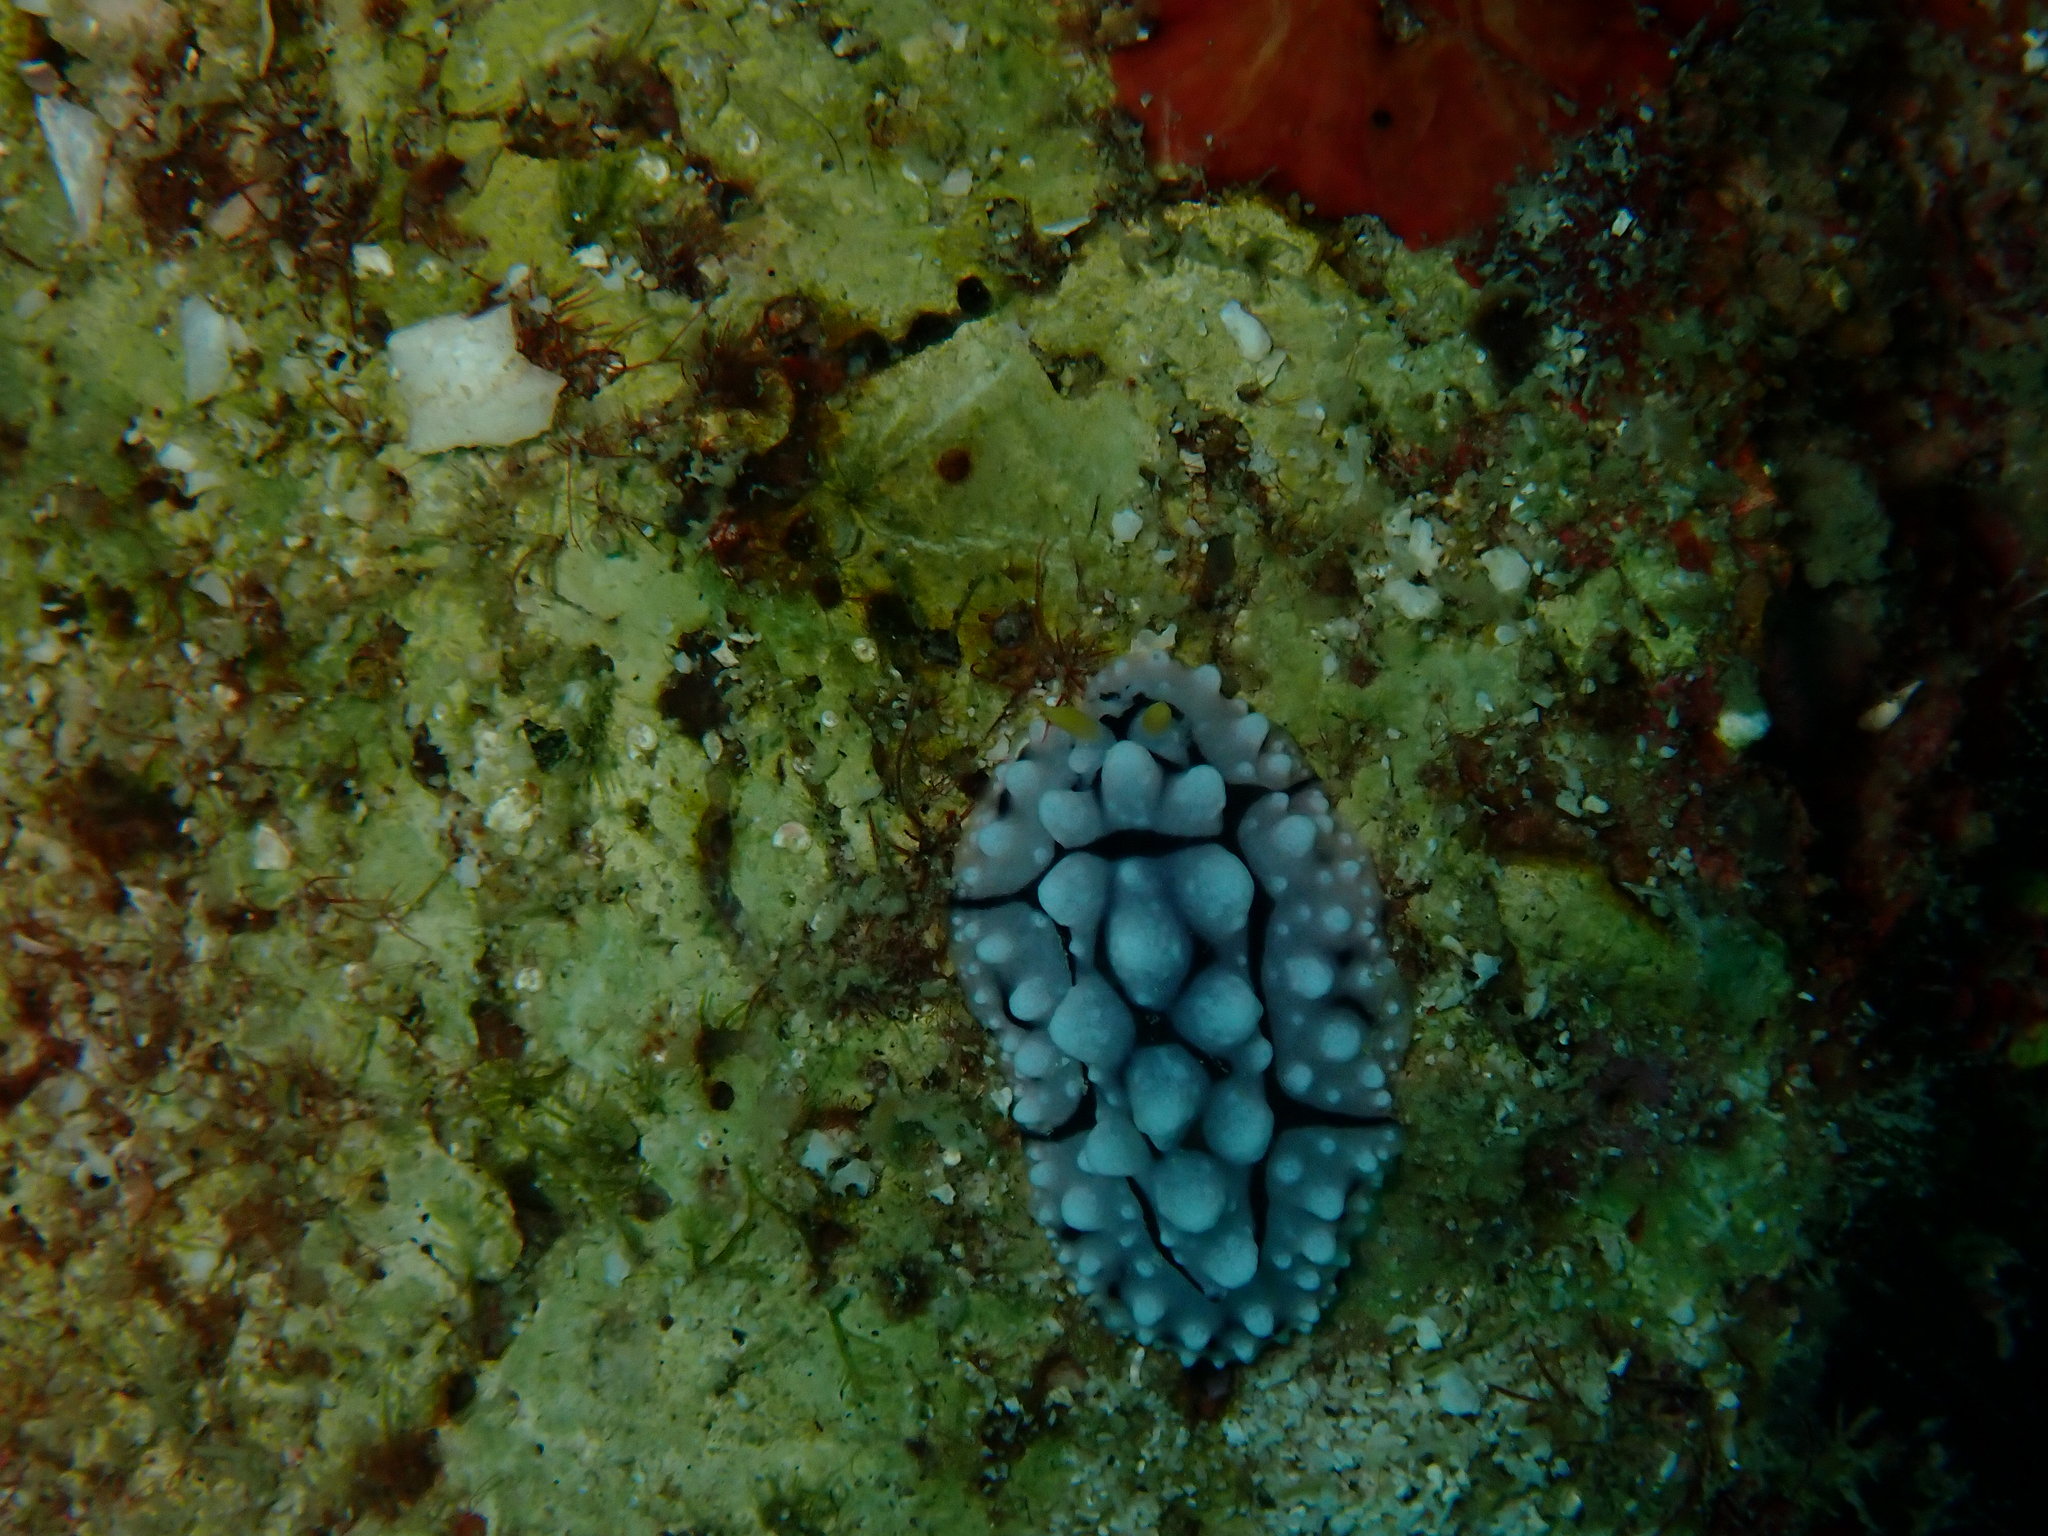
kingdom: Animalia
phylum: Mollusca
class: Gastropoda
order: Nudibranchia
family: Phyllidiidae
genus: Phyllidia
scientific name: Phyllidia elegans
